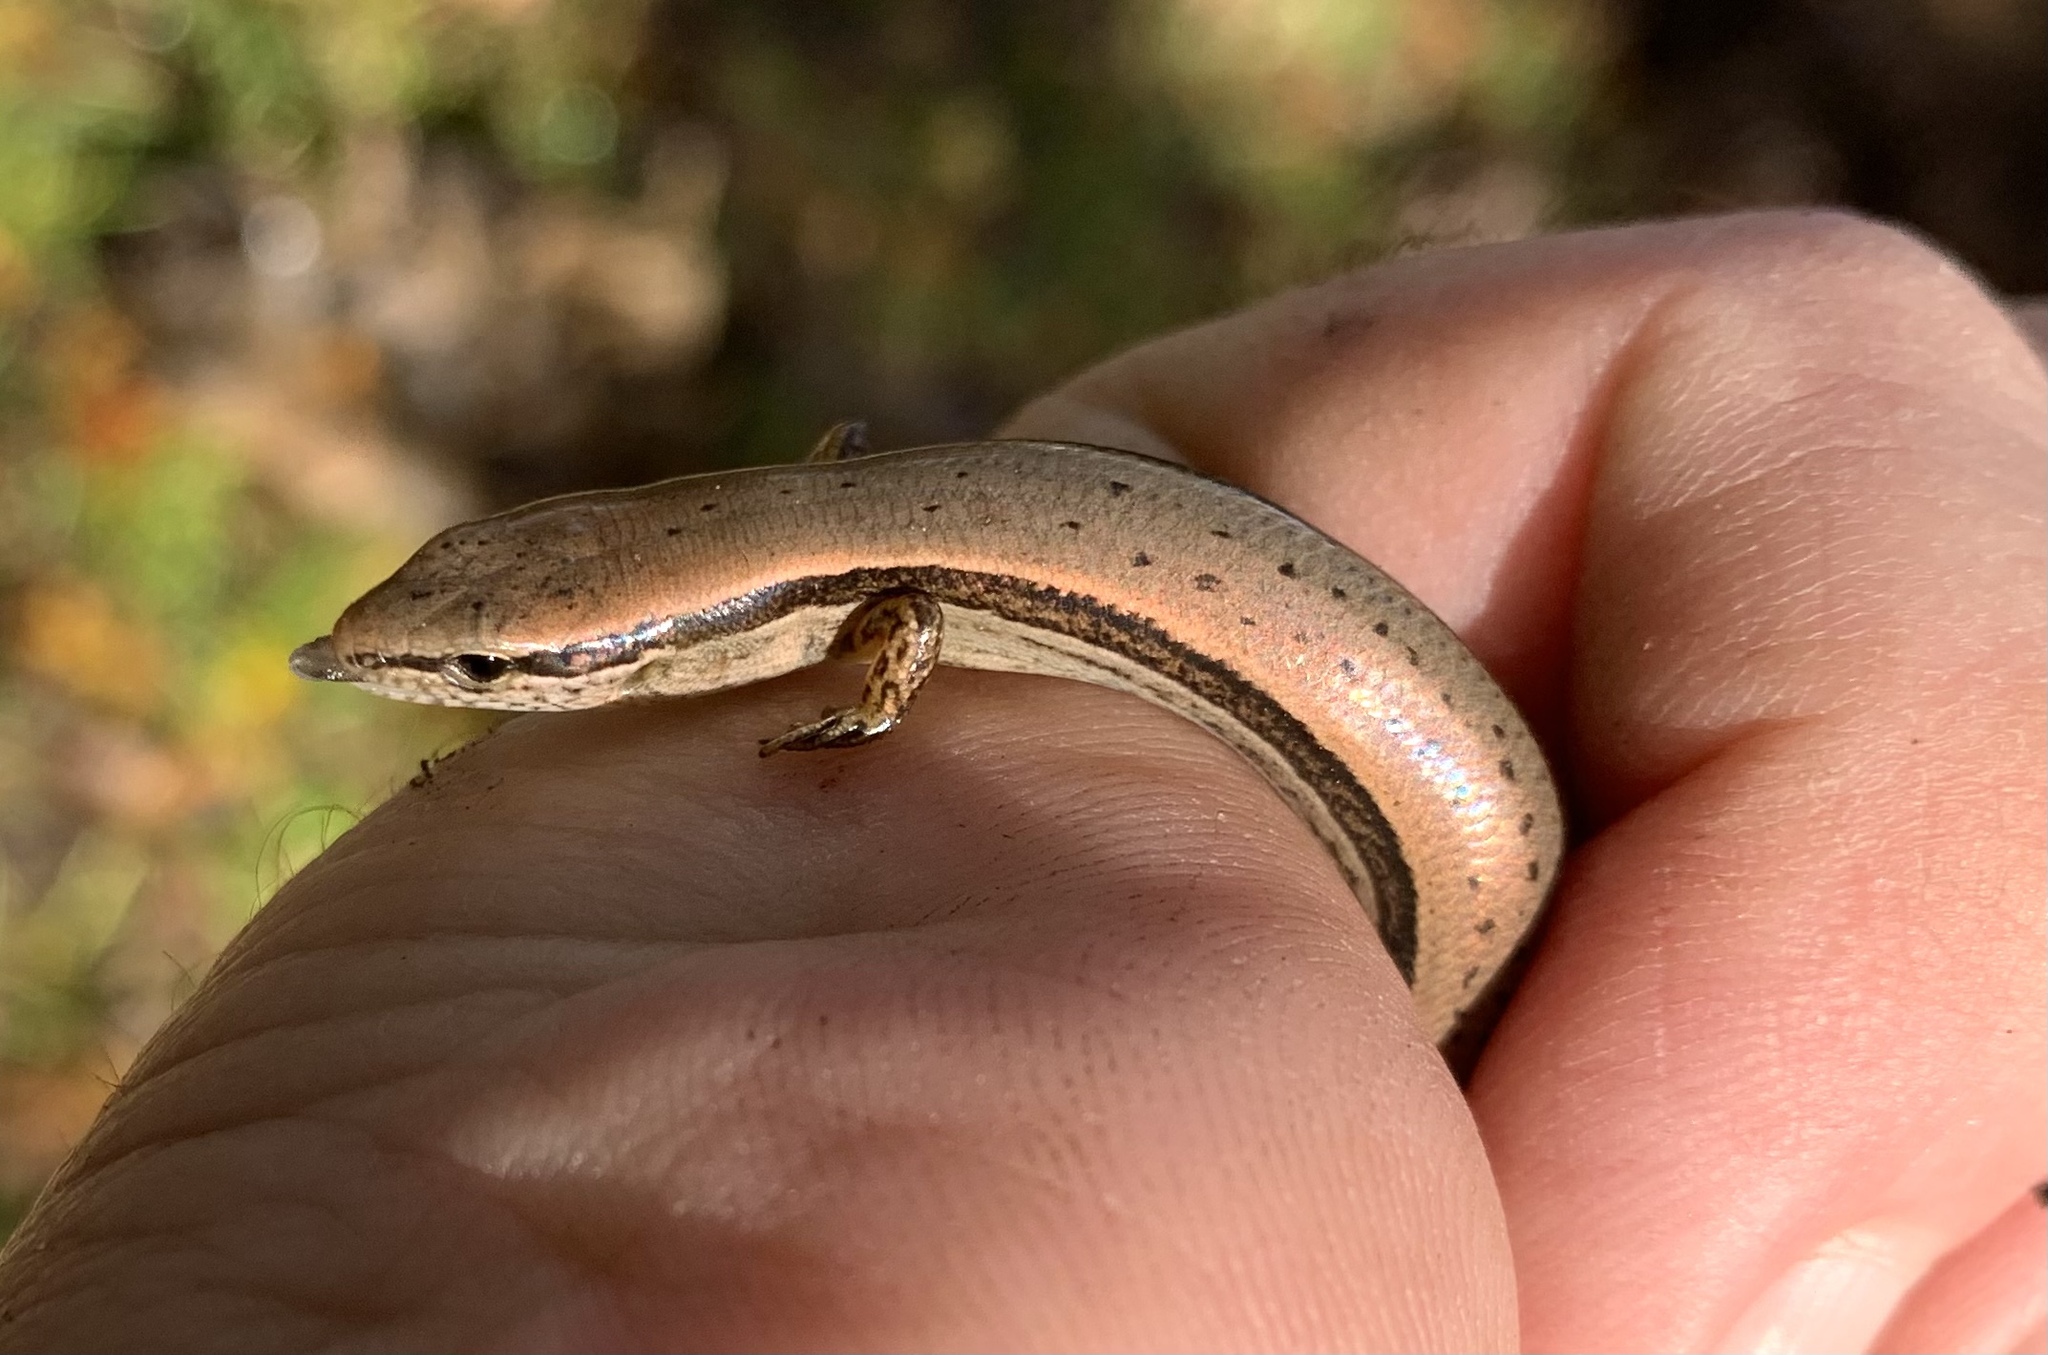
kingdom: Animalia
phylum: Chordata
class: Squamata
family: Scincidae
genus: Scincella
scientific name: Scincella lateralis
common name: Ground skink
